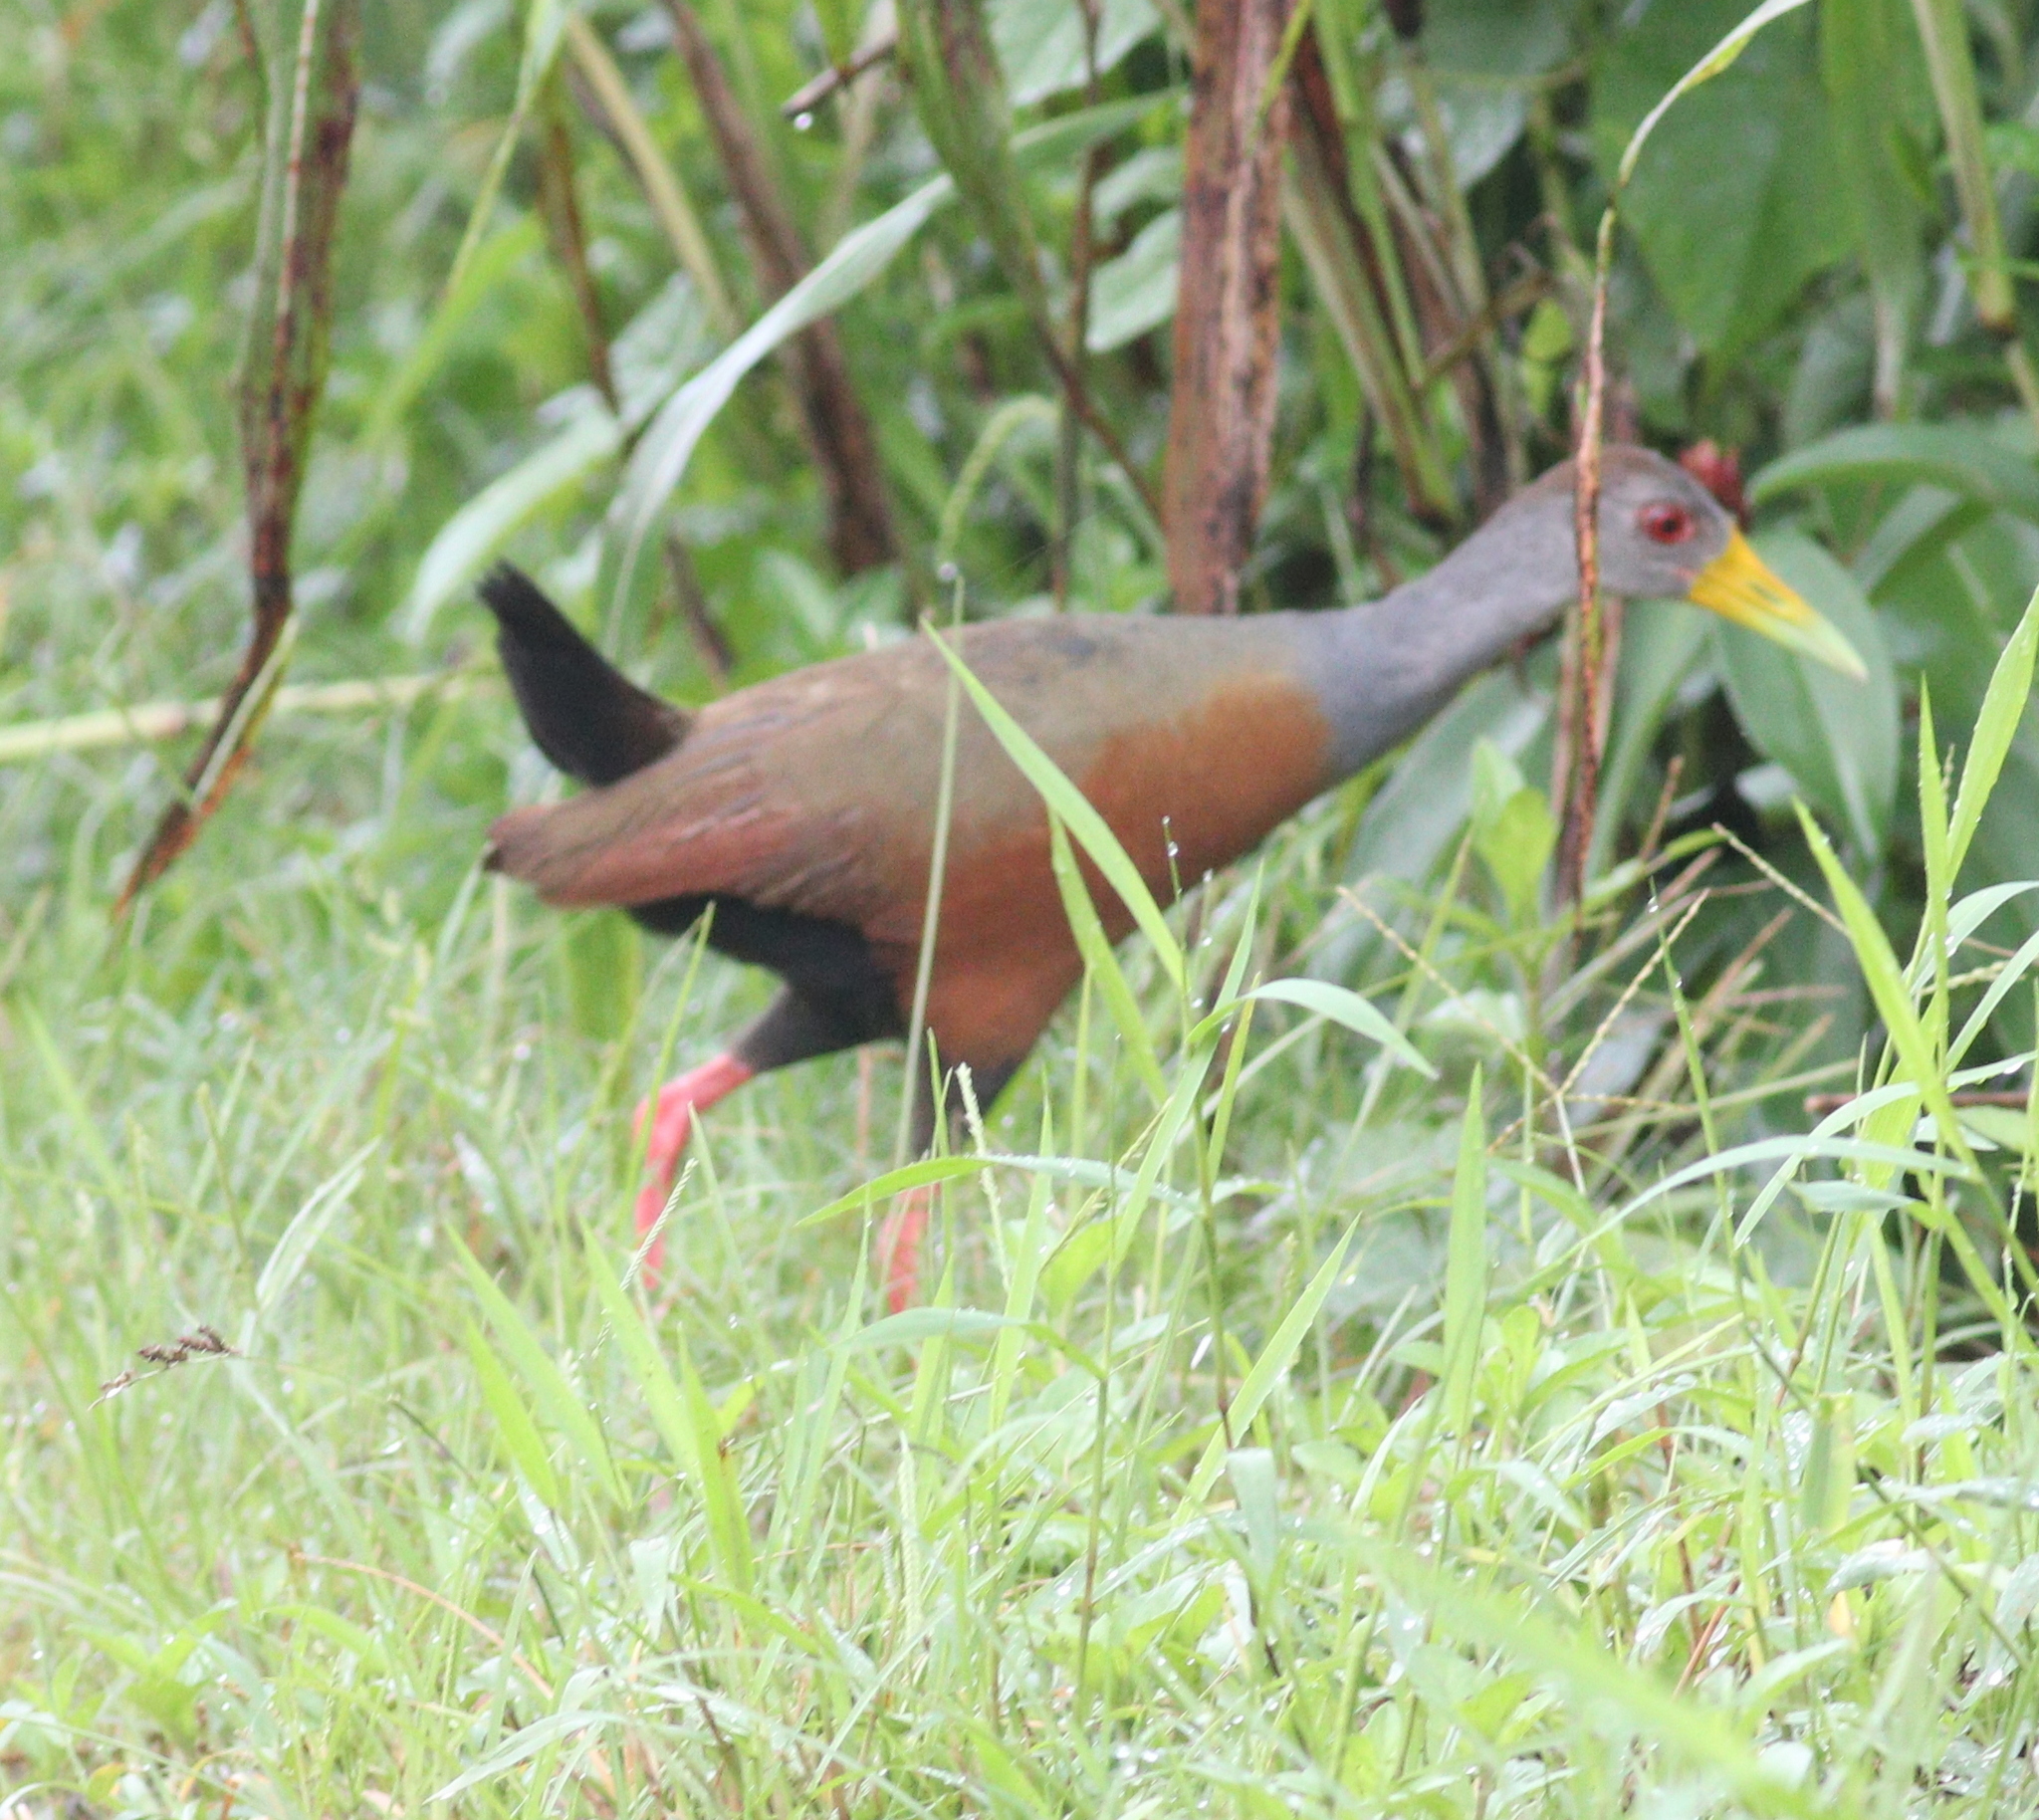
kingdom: Animalia
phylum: Chordata
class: Aves
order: Gruiformes
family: Rallidae
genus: Aramides
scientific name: Aramides cajanea
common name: Gray-necked wood-rail
